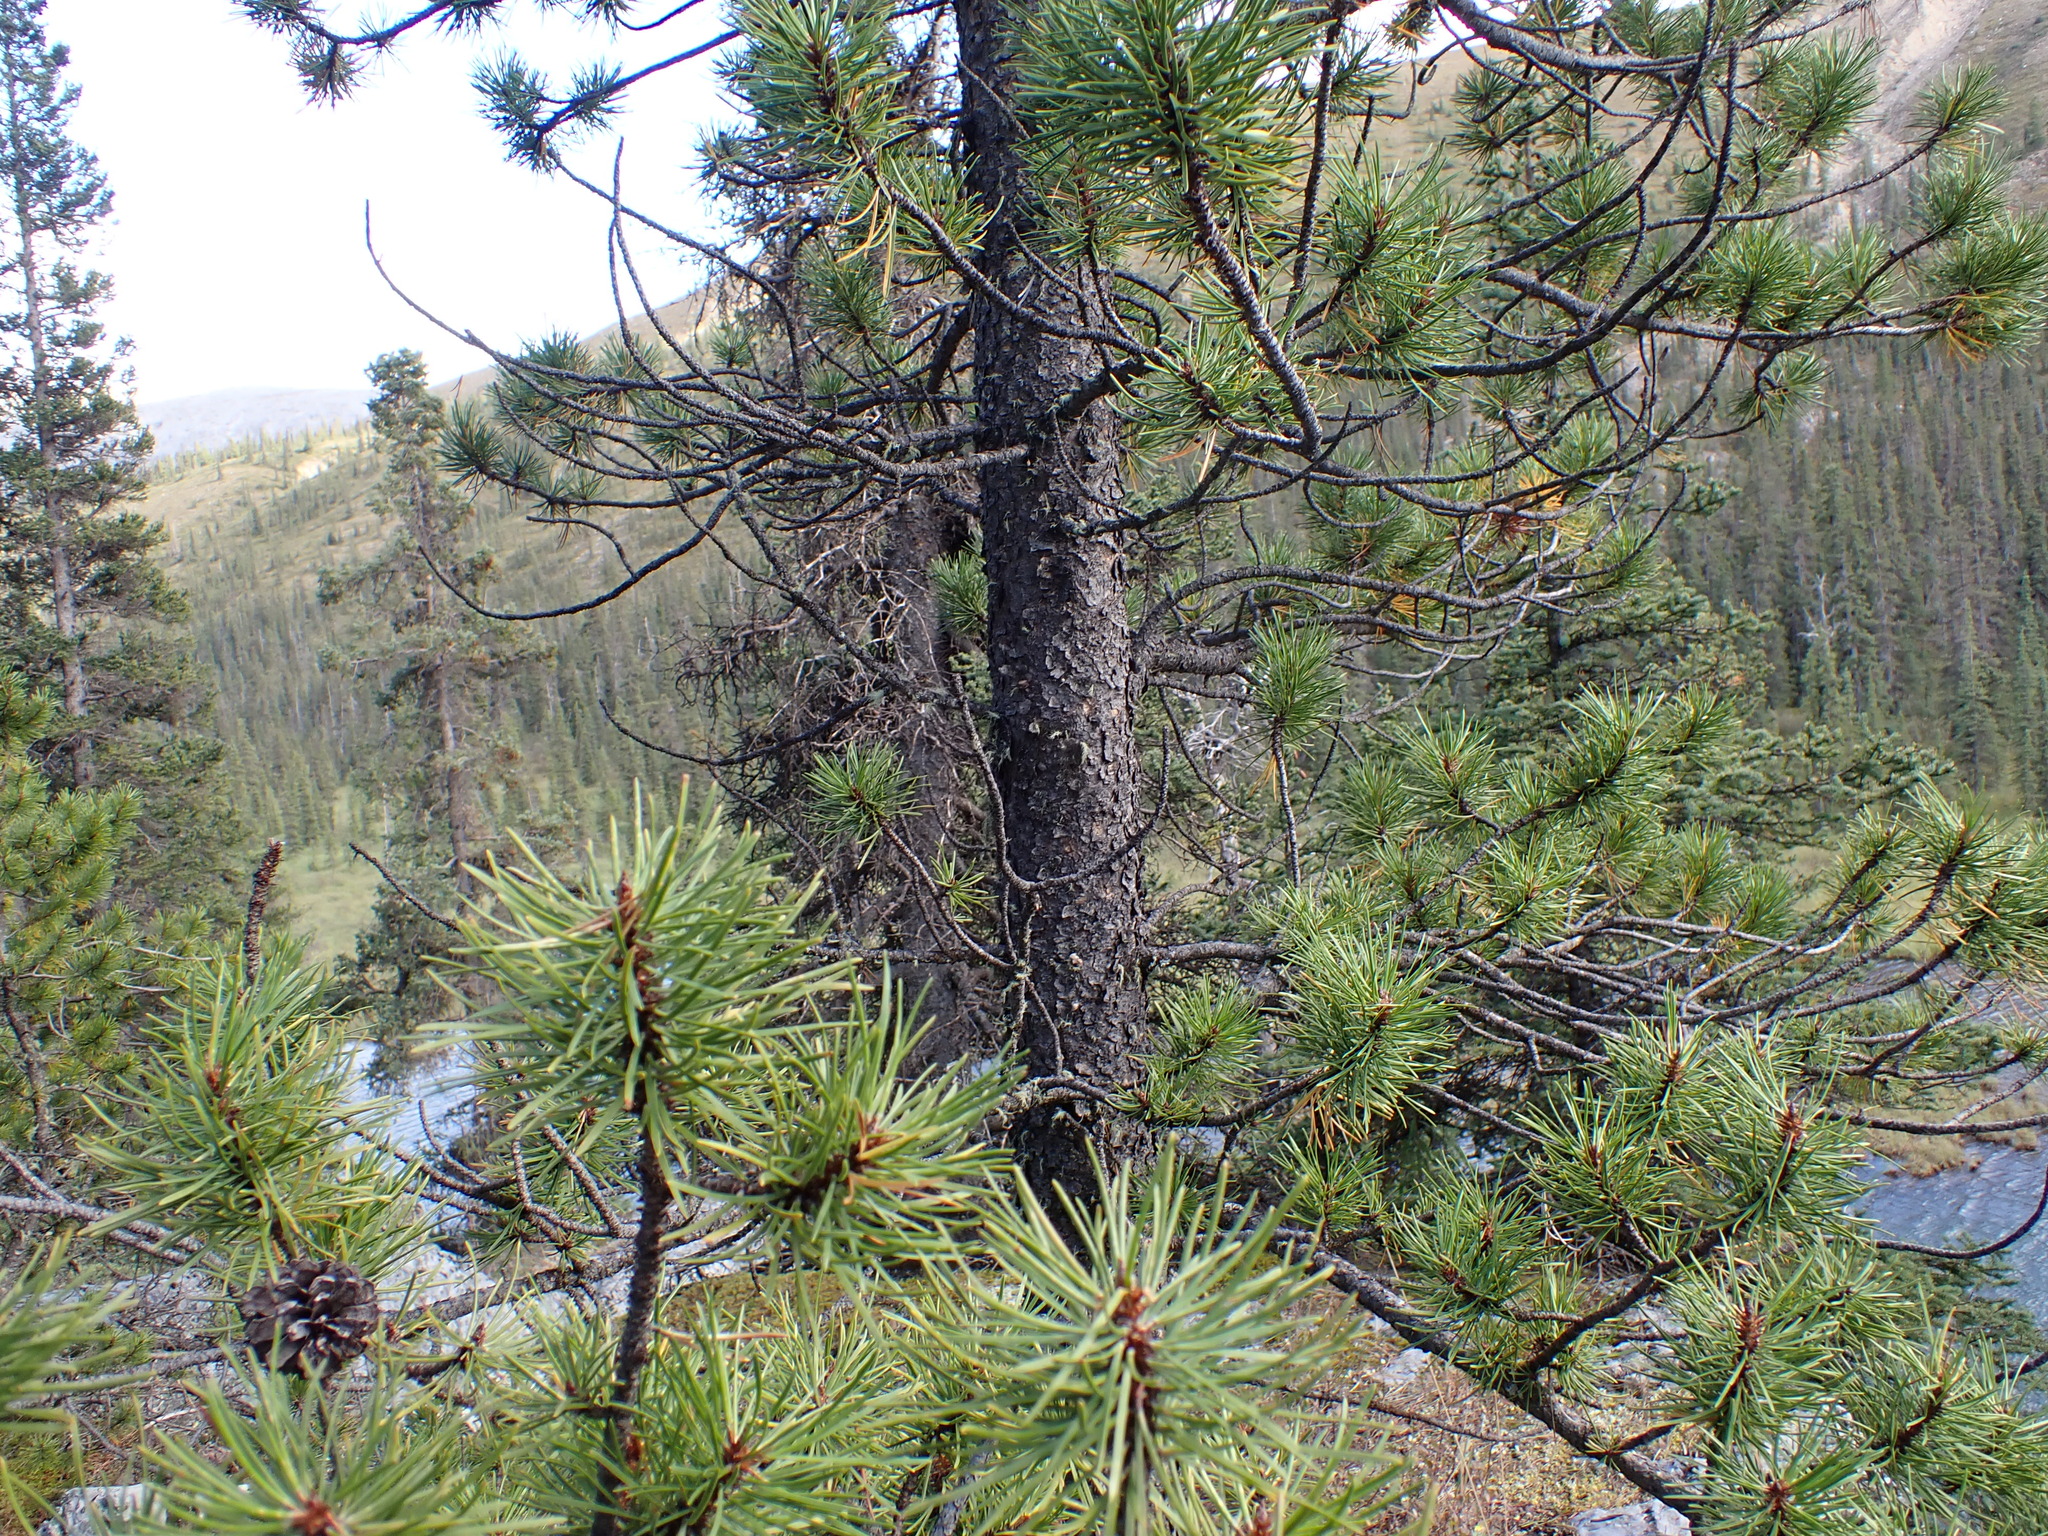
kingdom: Plantae
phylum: Tracheophyta
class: Pinopsida
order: Pinales
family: Pinaceae
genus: Pinus
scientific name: Pinus contorta
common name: Lodgepole pine
